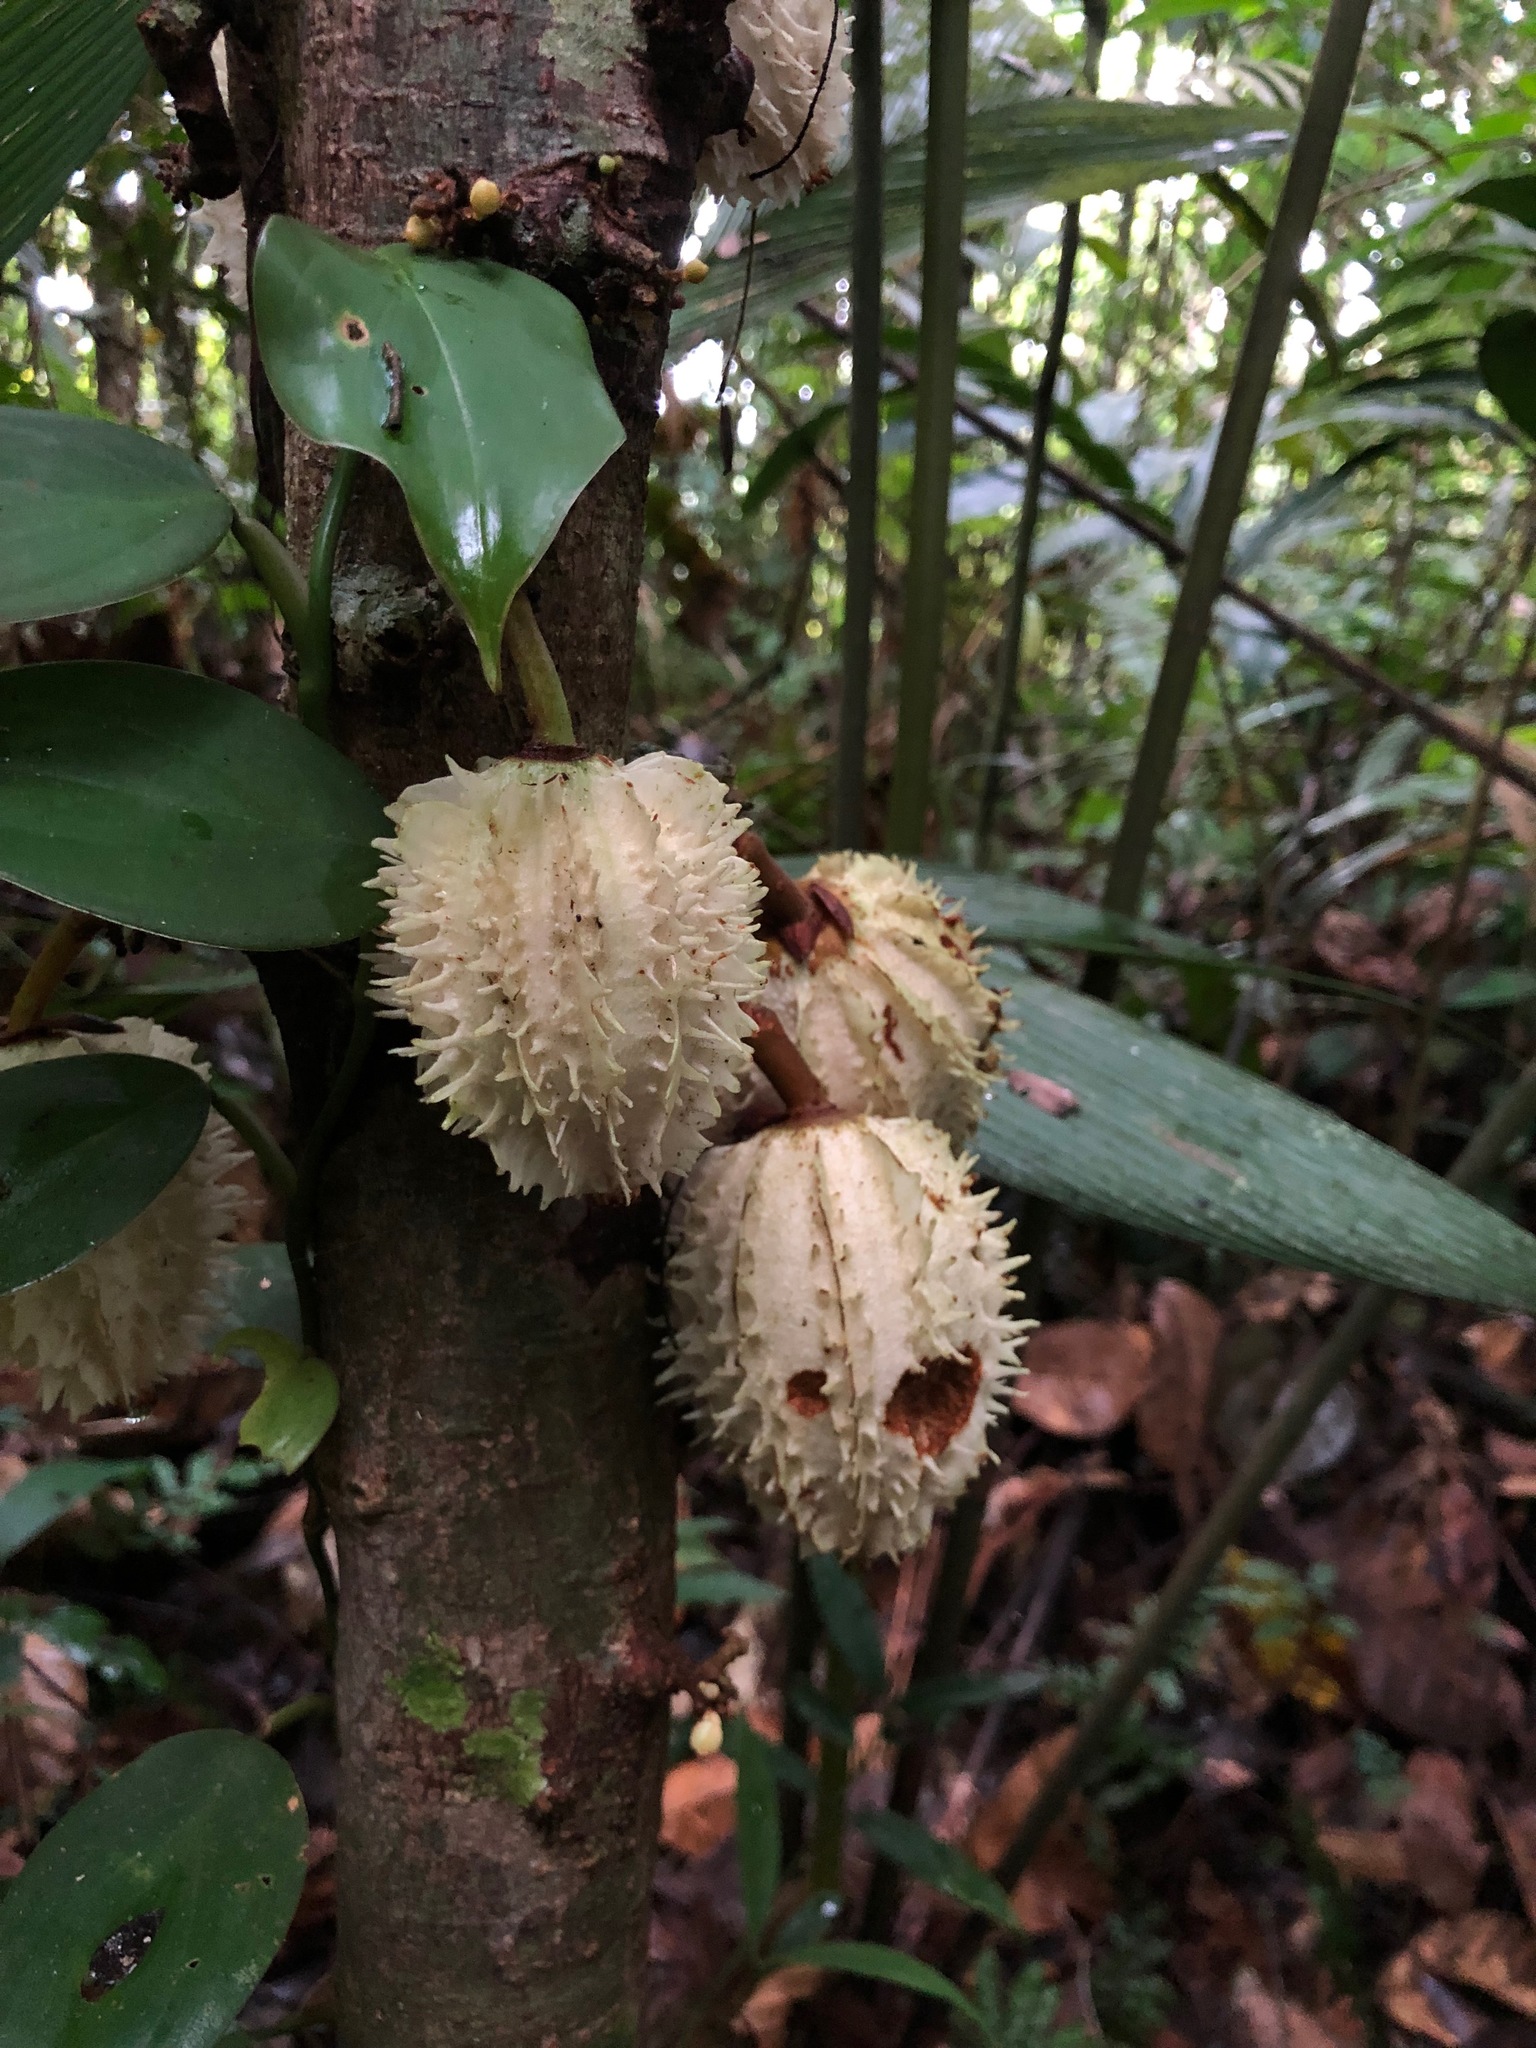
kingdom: Plantae
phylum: Tracheophyta
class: Magnoliopsida
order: Malpighiales
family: Achariaceae
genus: Carpotroche
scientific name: Carpotroche longifolia
